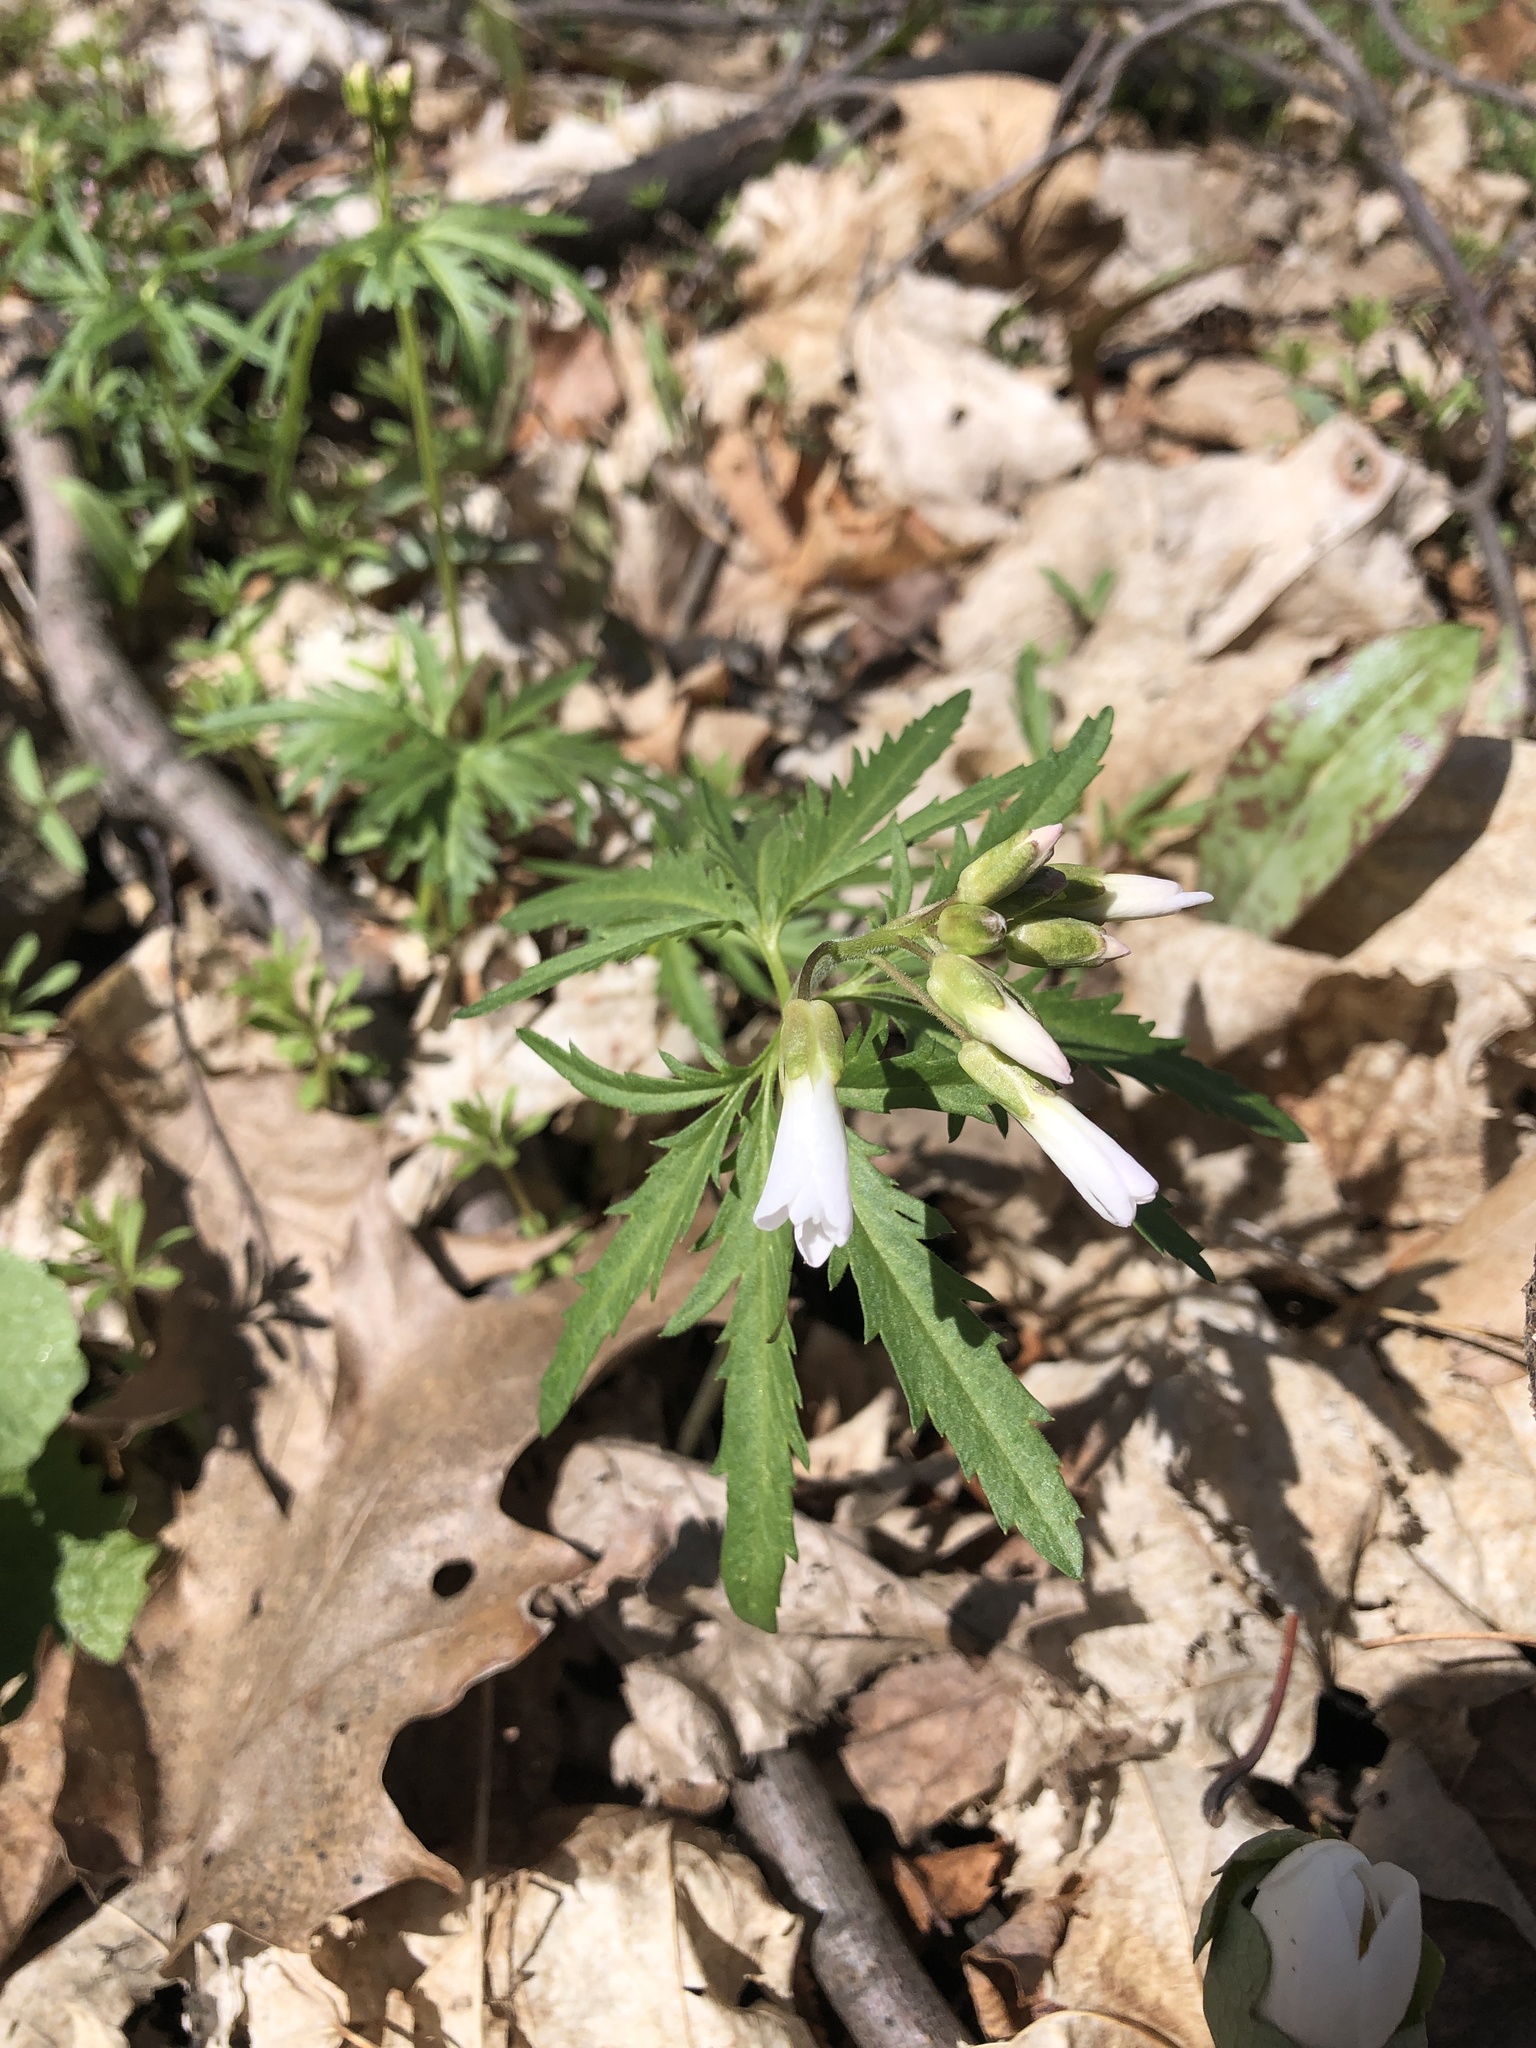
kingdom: Plantae
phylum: Tracheophyta
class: Magnoliopsida
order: Brassicales
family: Brassicaceae
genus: Cardamine
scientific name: Cardamine concatenata
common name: Cut-leaf toothcup
